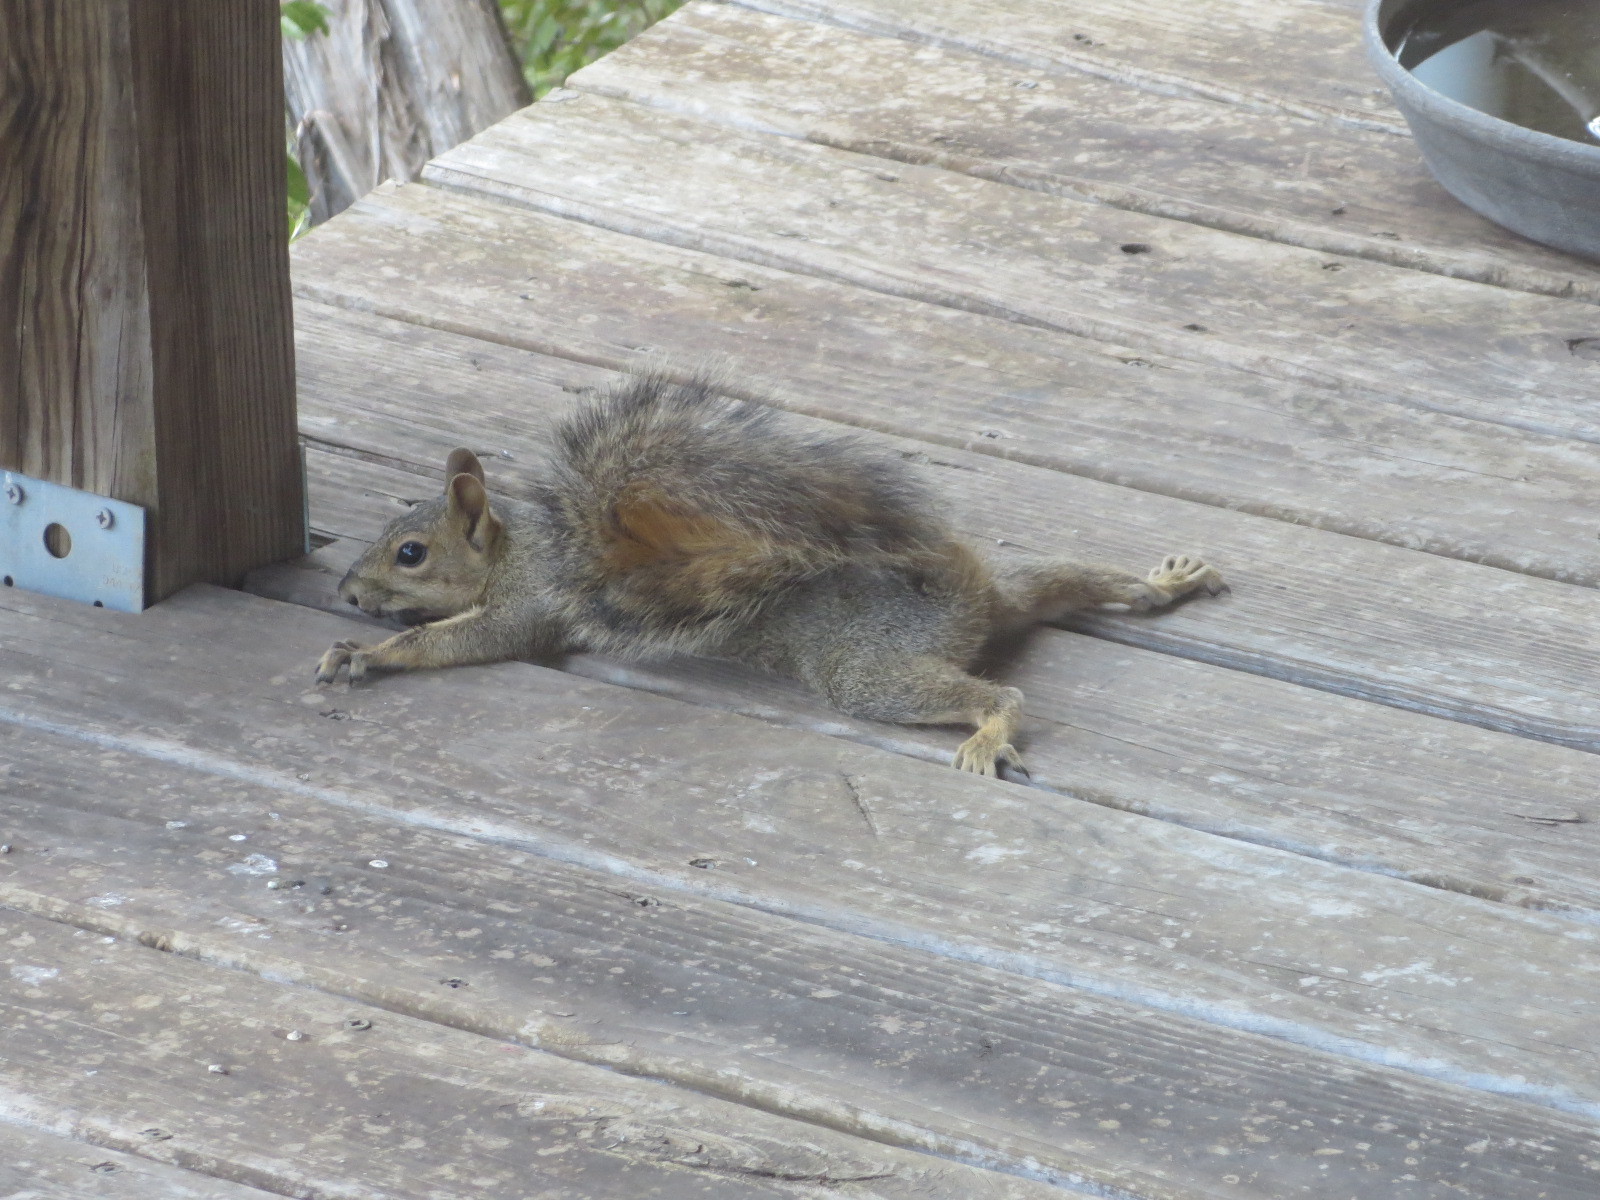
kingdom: Animalia
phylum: Chordata
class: Mammalia
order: Rodentia
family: Sciuridae
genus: Sciurus
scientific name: Sciurus niger
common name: Fox squirrel
